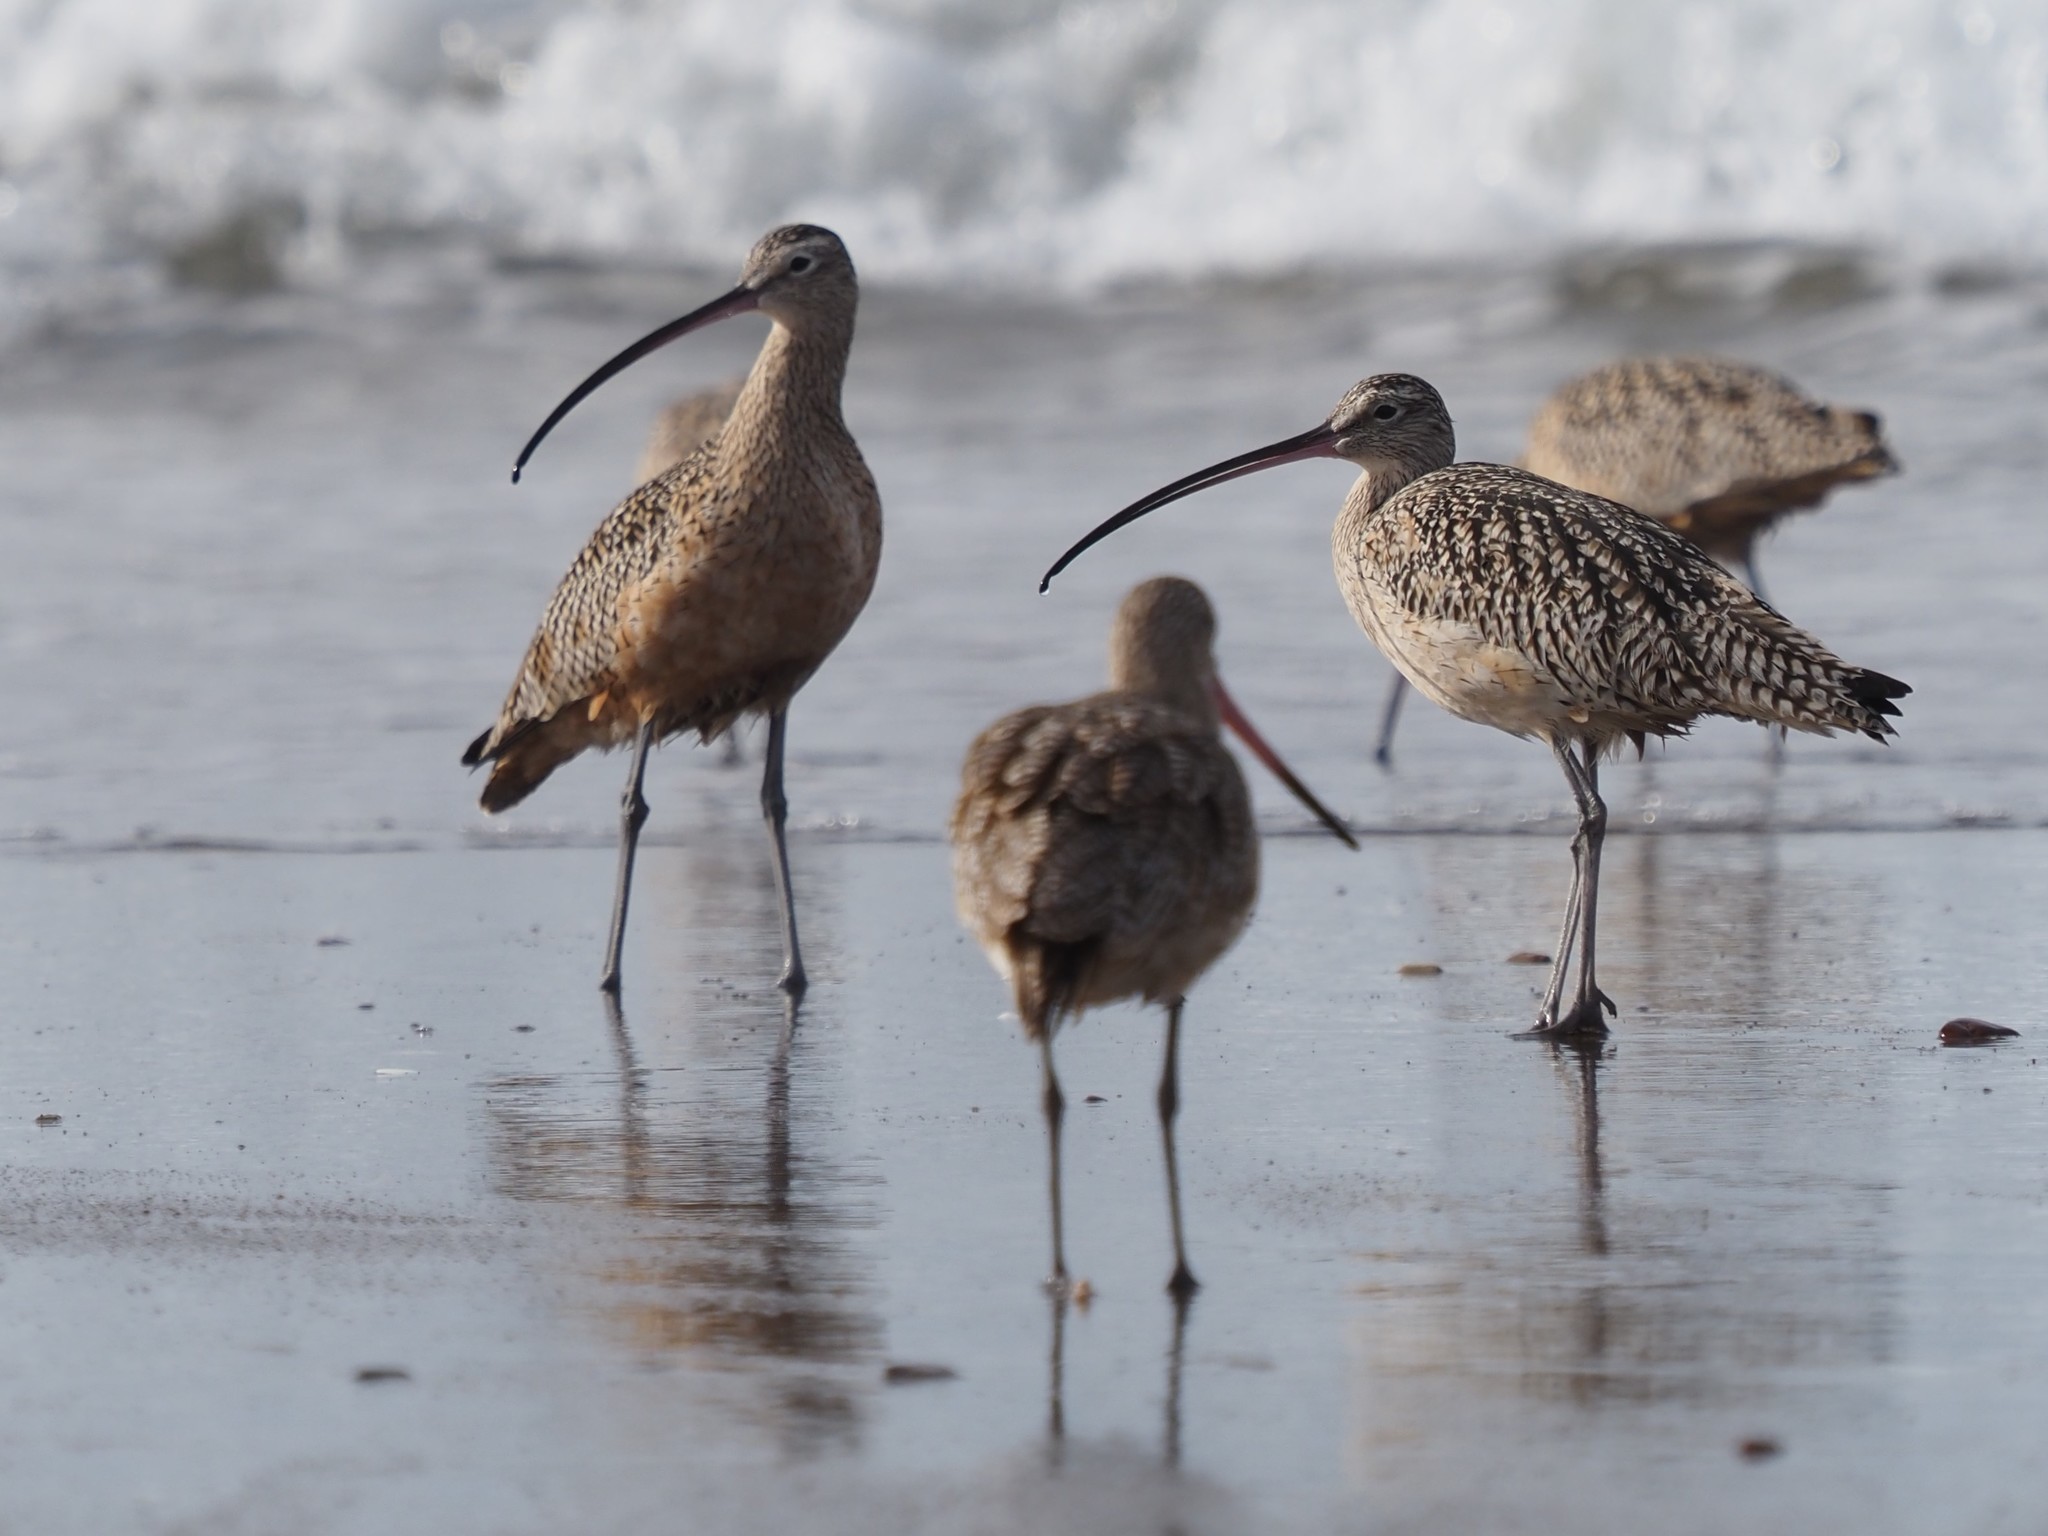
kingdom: Animalia
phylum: Chordata
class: Aves
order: Charadriiformes
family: Scolopacidae
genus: Numenius
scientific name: Numenius americanus
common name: Long-billed curlew
